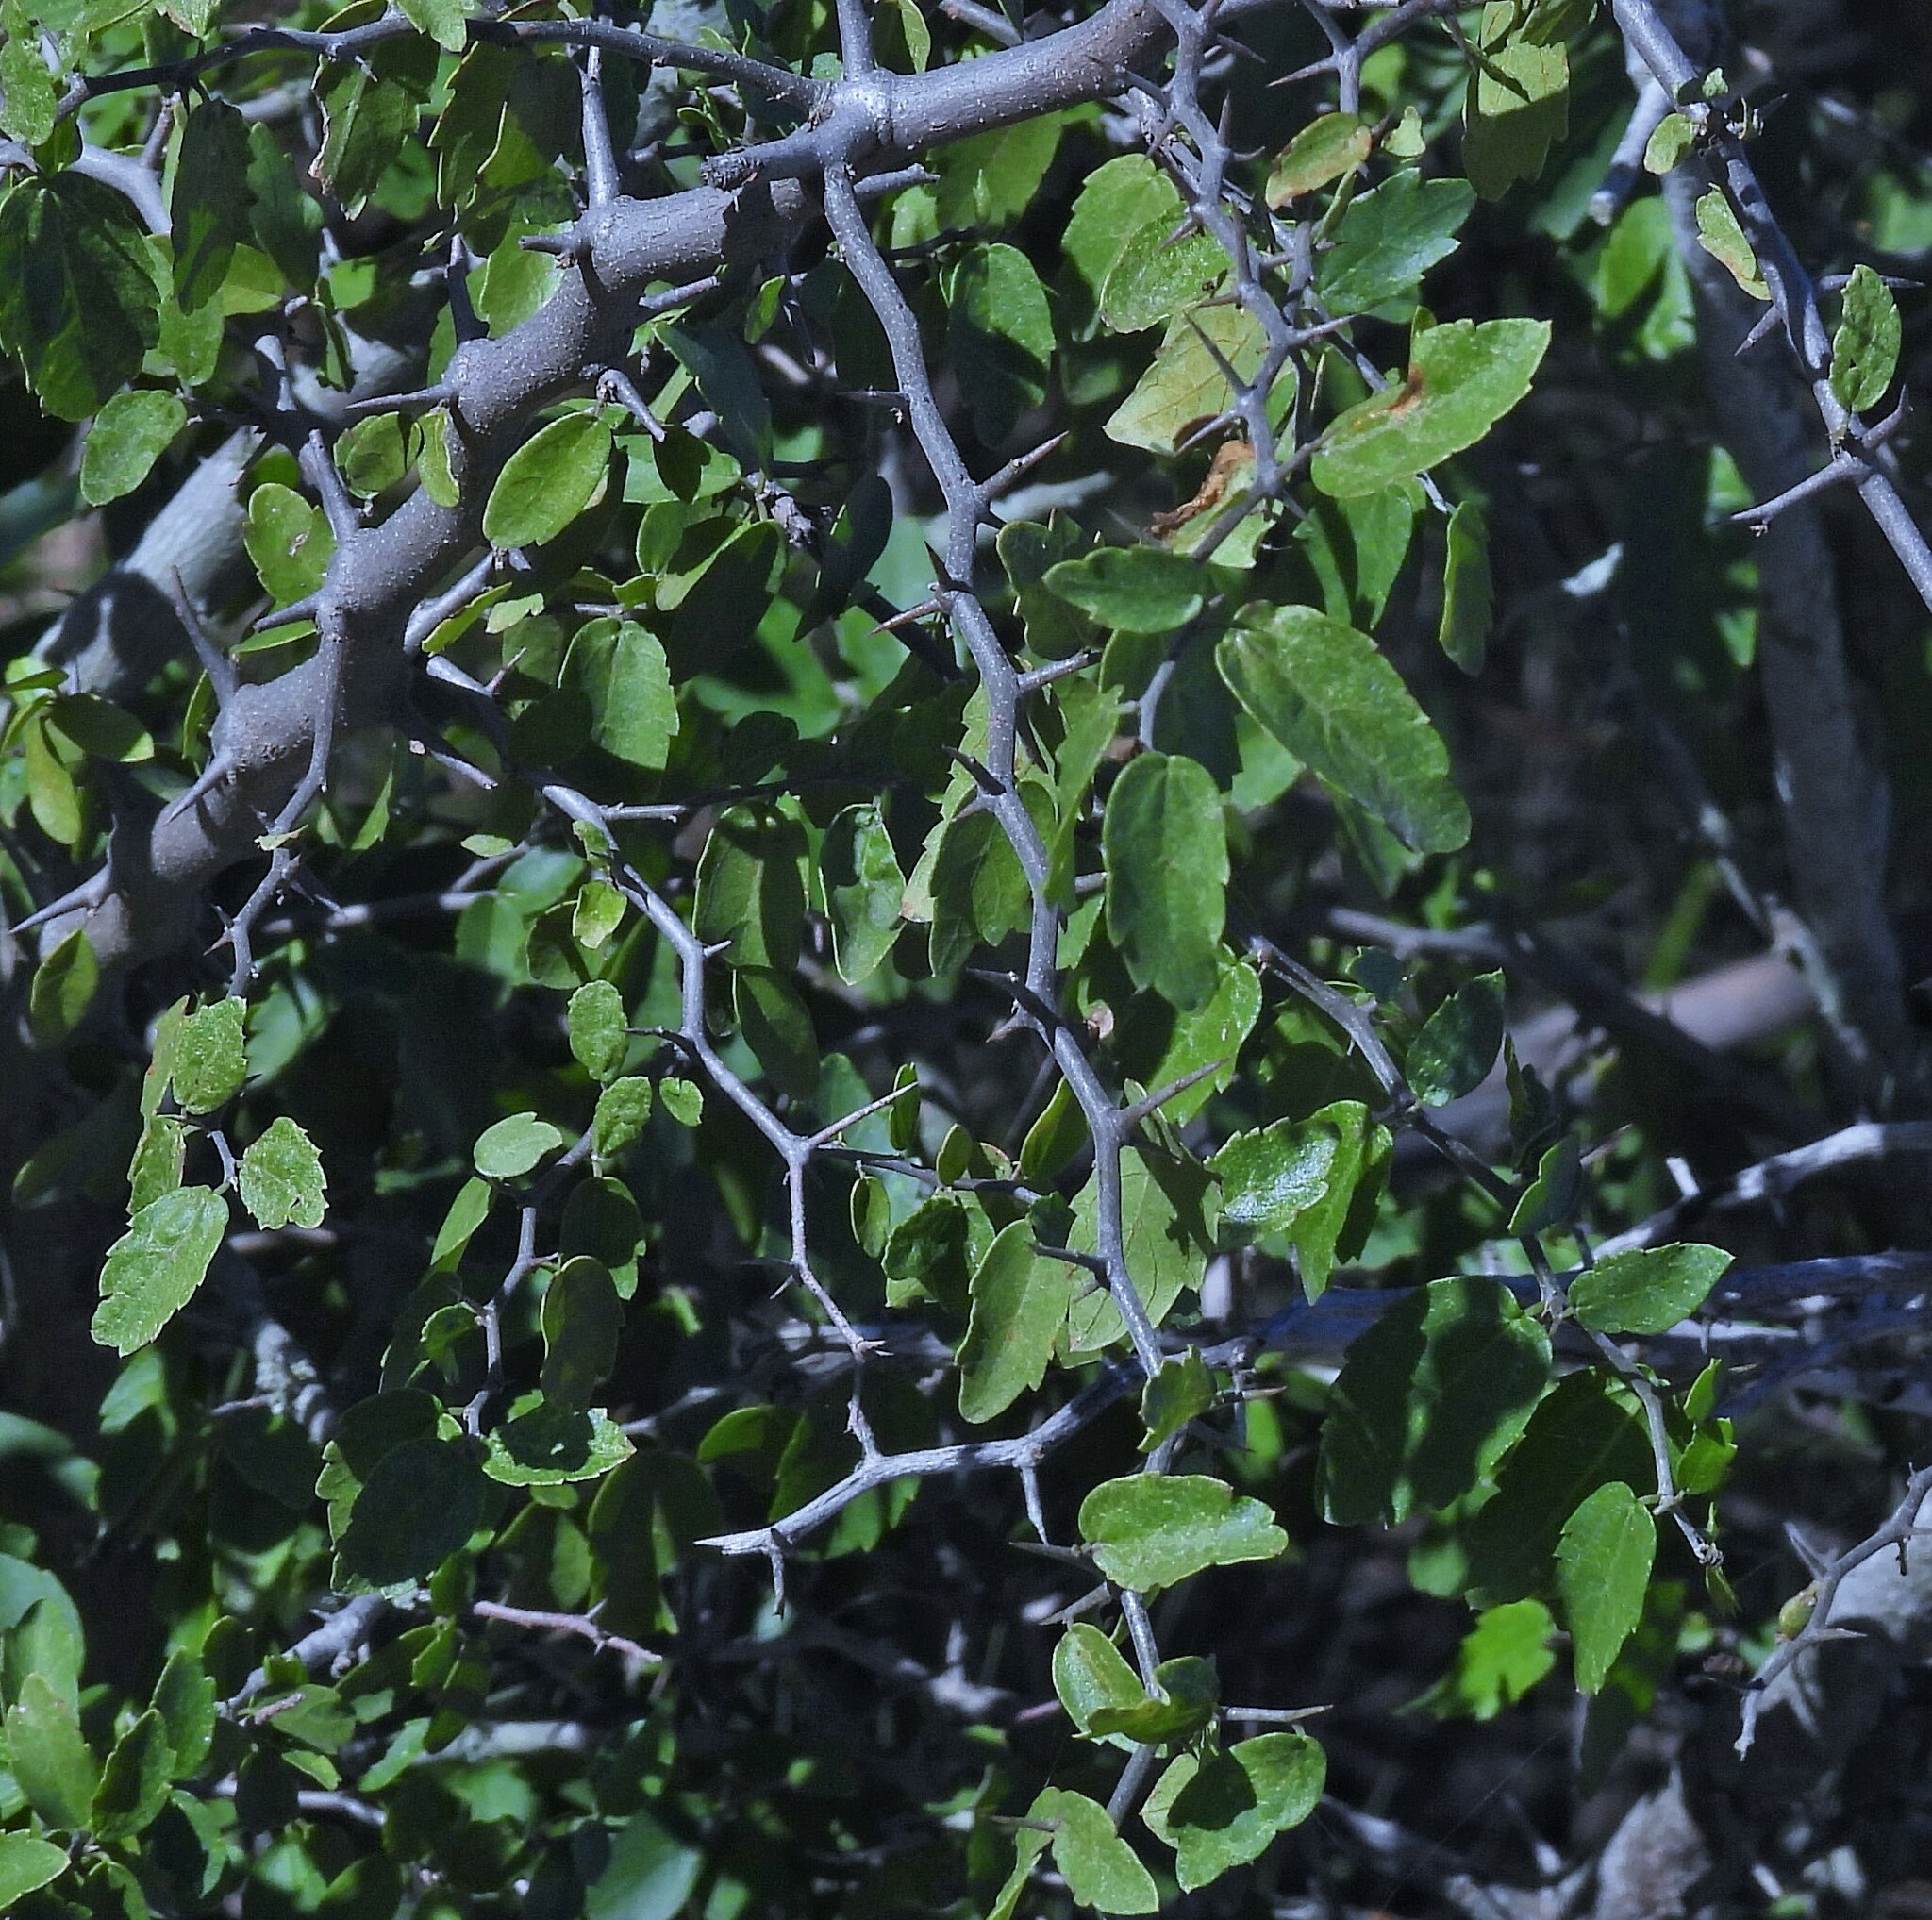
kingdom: Plantae
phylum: Tracheophyta
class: Magnoliopsida
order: Rosales
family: Cannabaceae
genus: Celtis
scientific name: Celtis pallida
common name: Desert hackberry
